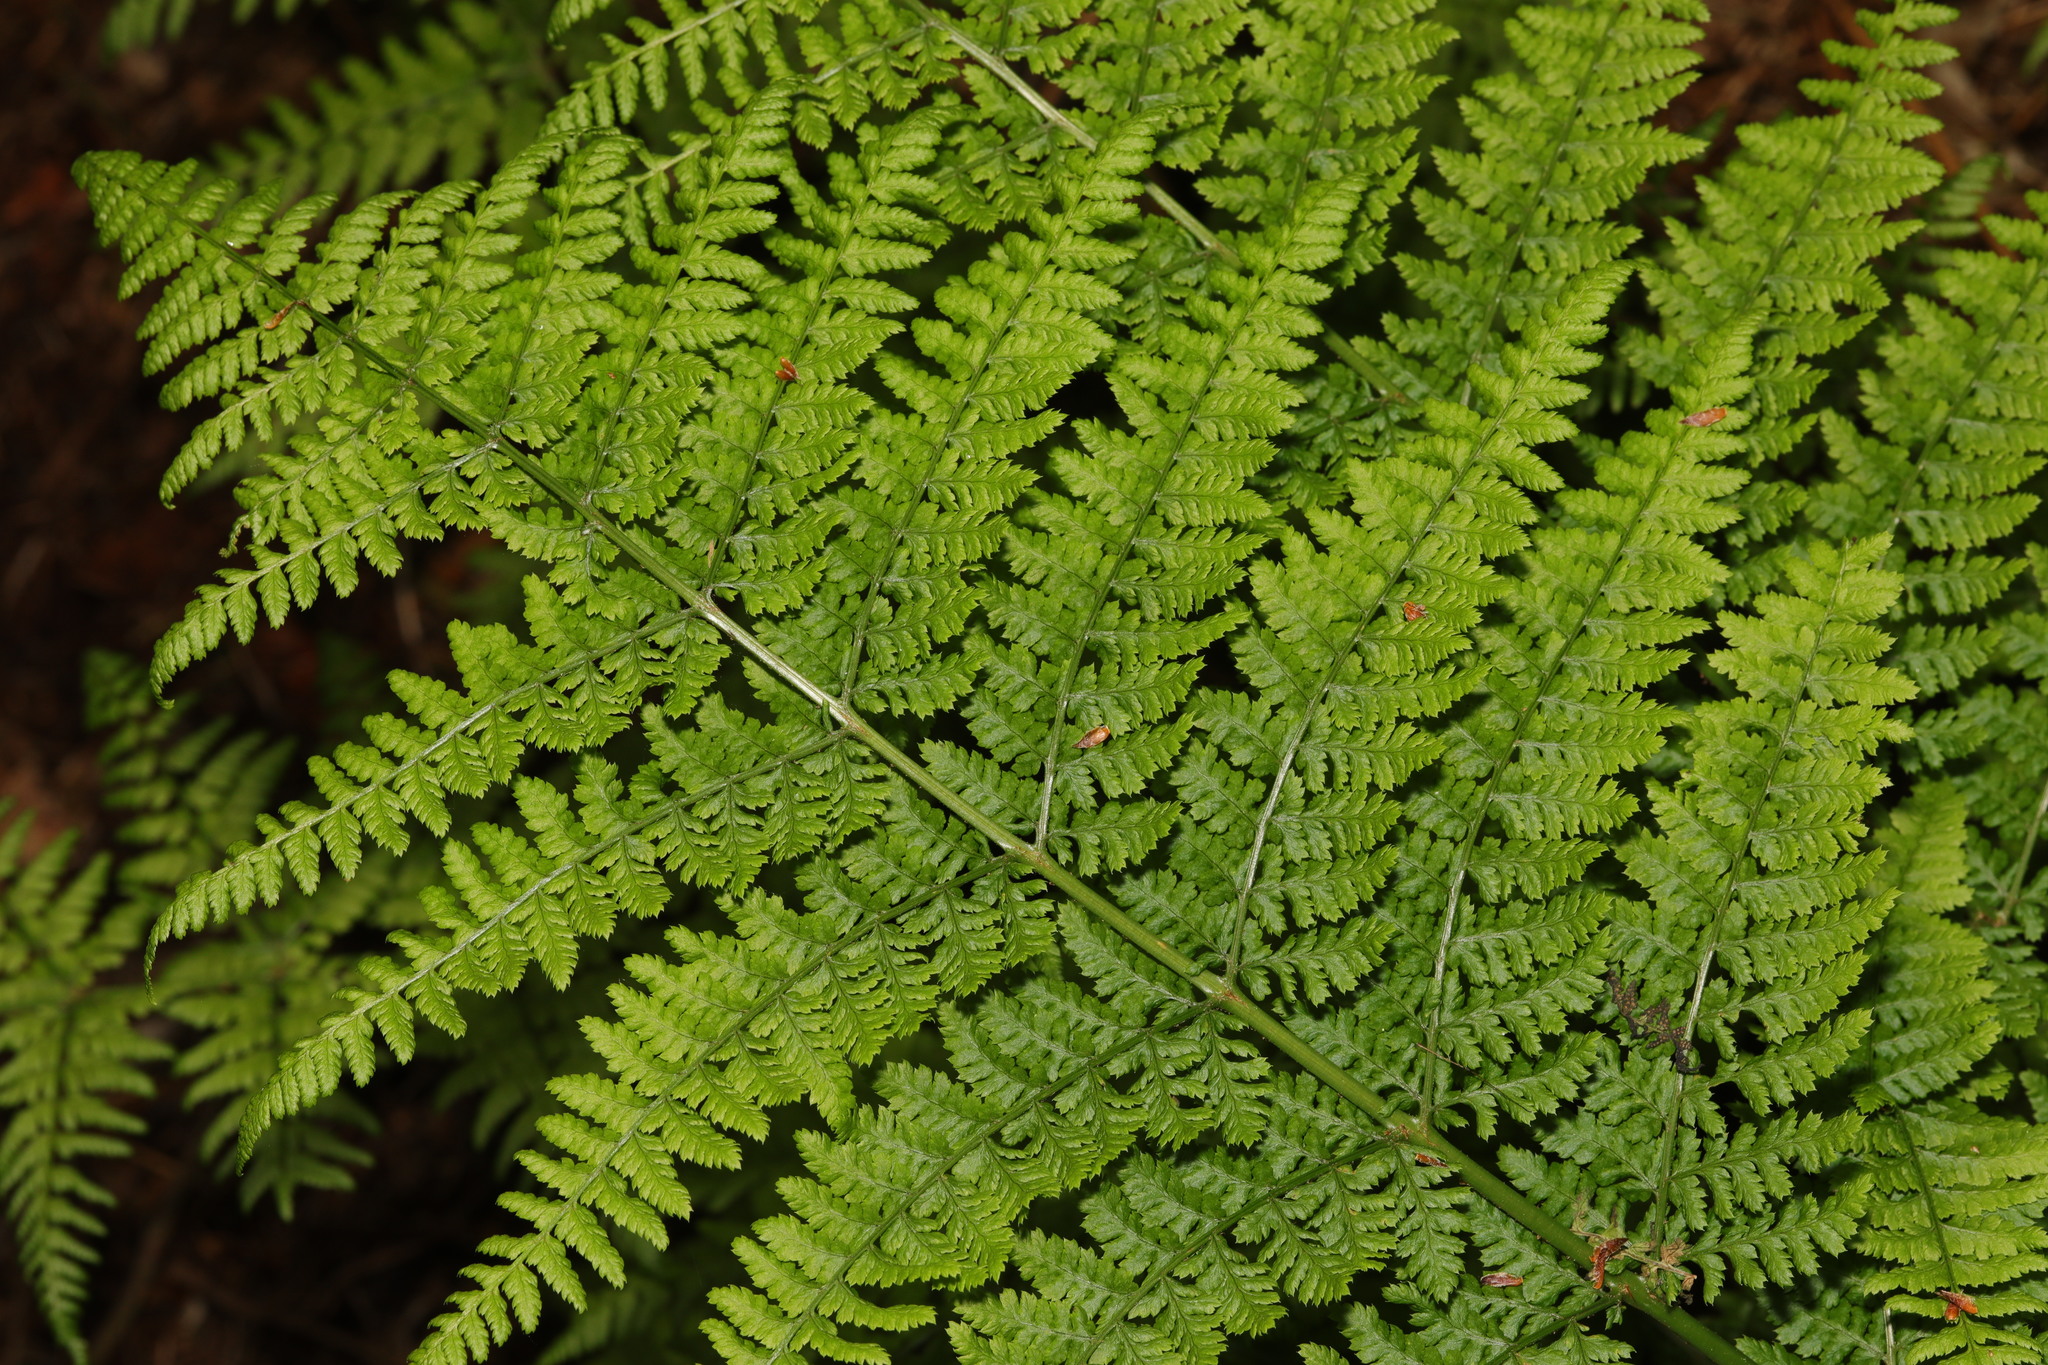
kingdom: Plantae
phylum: Tracheophyta
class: Polypodiopsida
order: Polypodiales
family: Dryopteridaceae
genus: Dryopteris
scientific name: Dryopteris dilatata
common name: Broad buckler-fern
